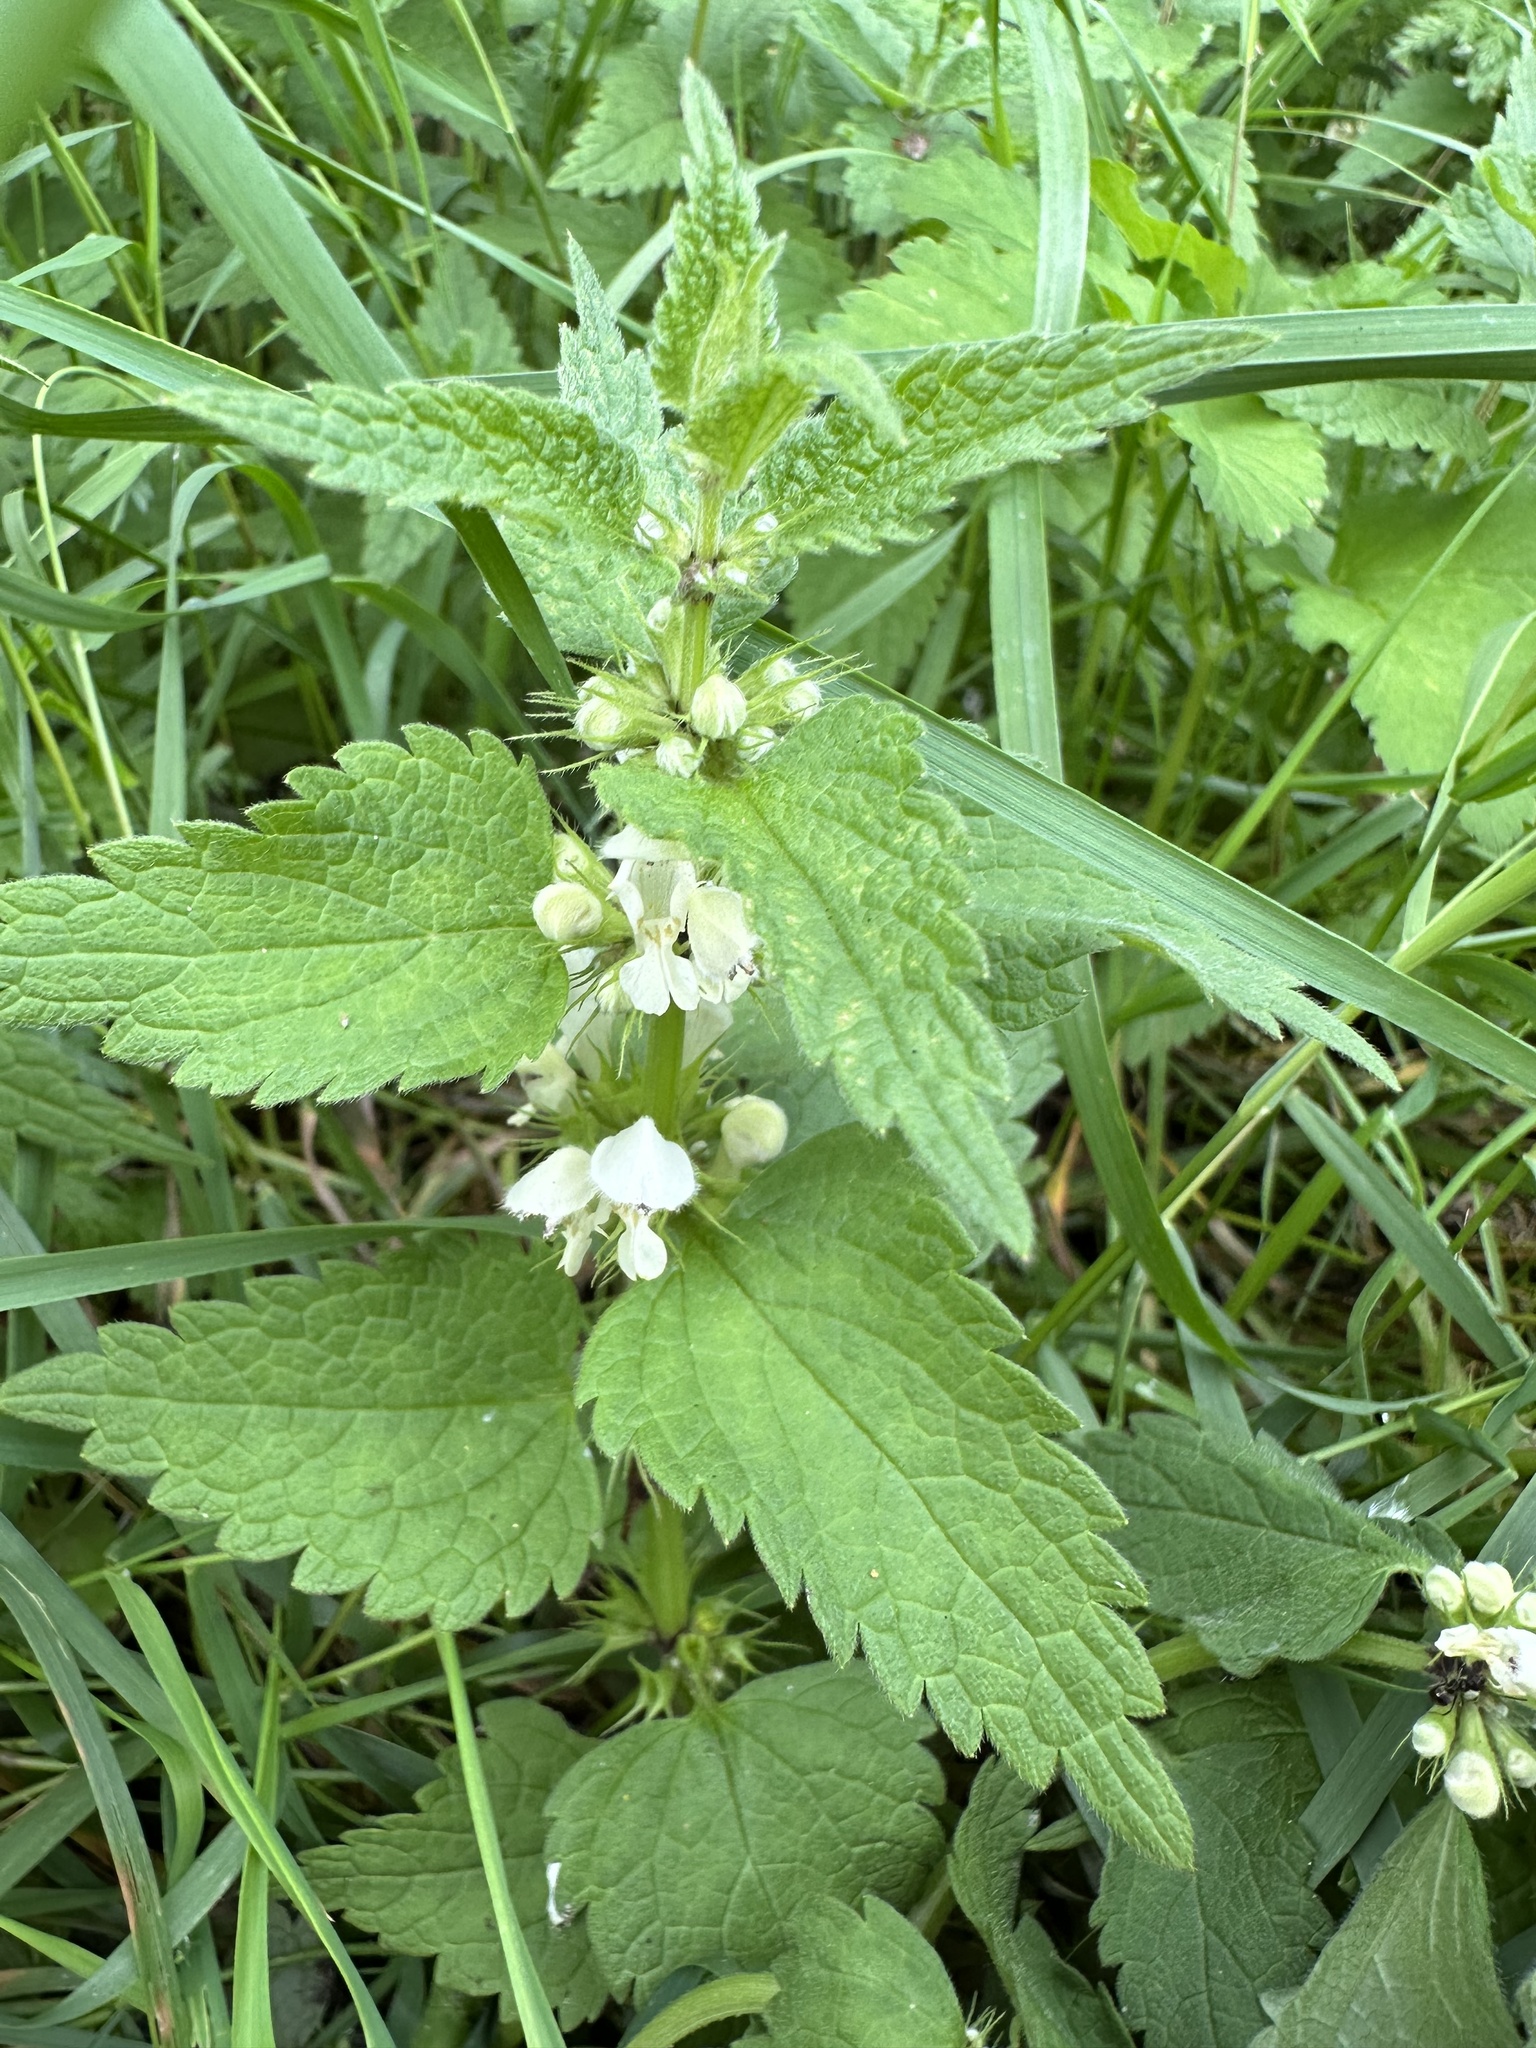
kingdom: Plantae
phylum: Tracheophyta
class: Magnoliopsida
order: Lamiales
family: Lamiaceae
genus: Lamium
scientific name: Lamium album
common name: White dead-nettle
